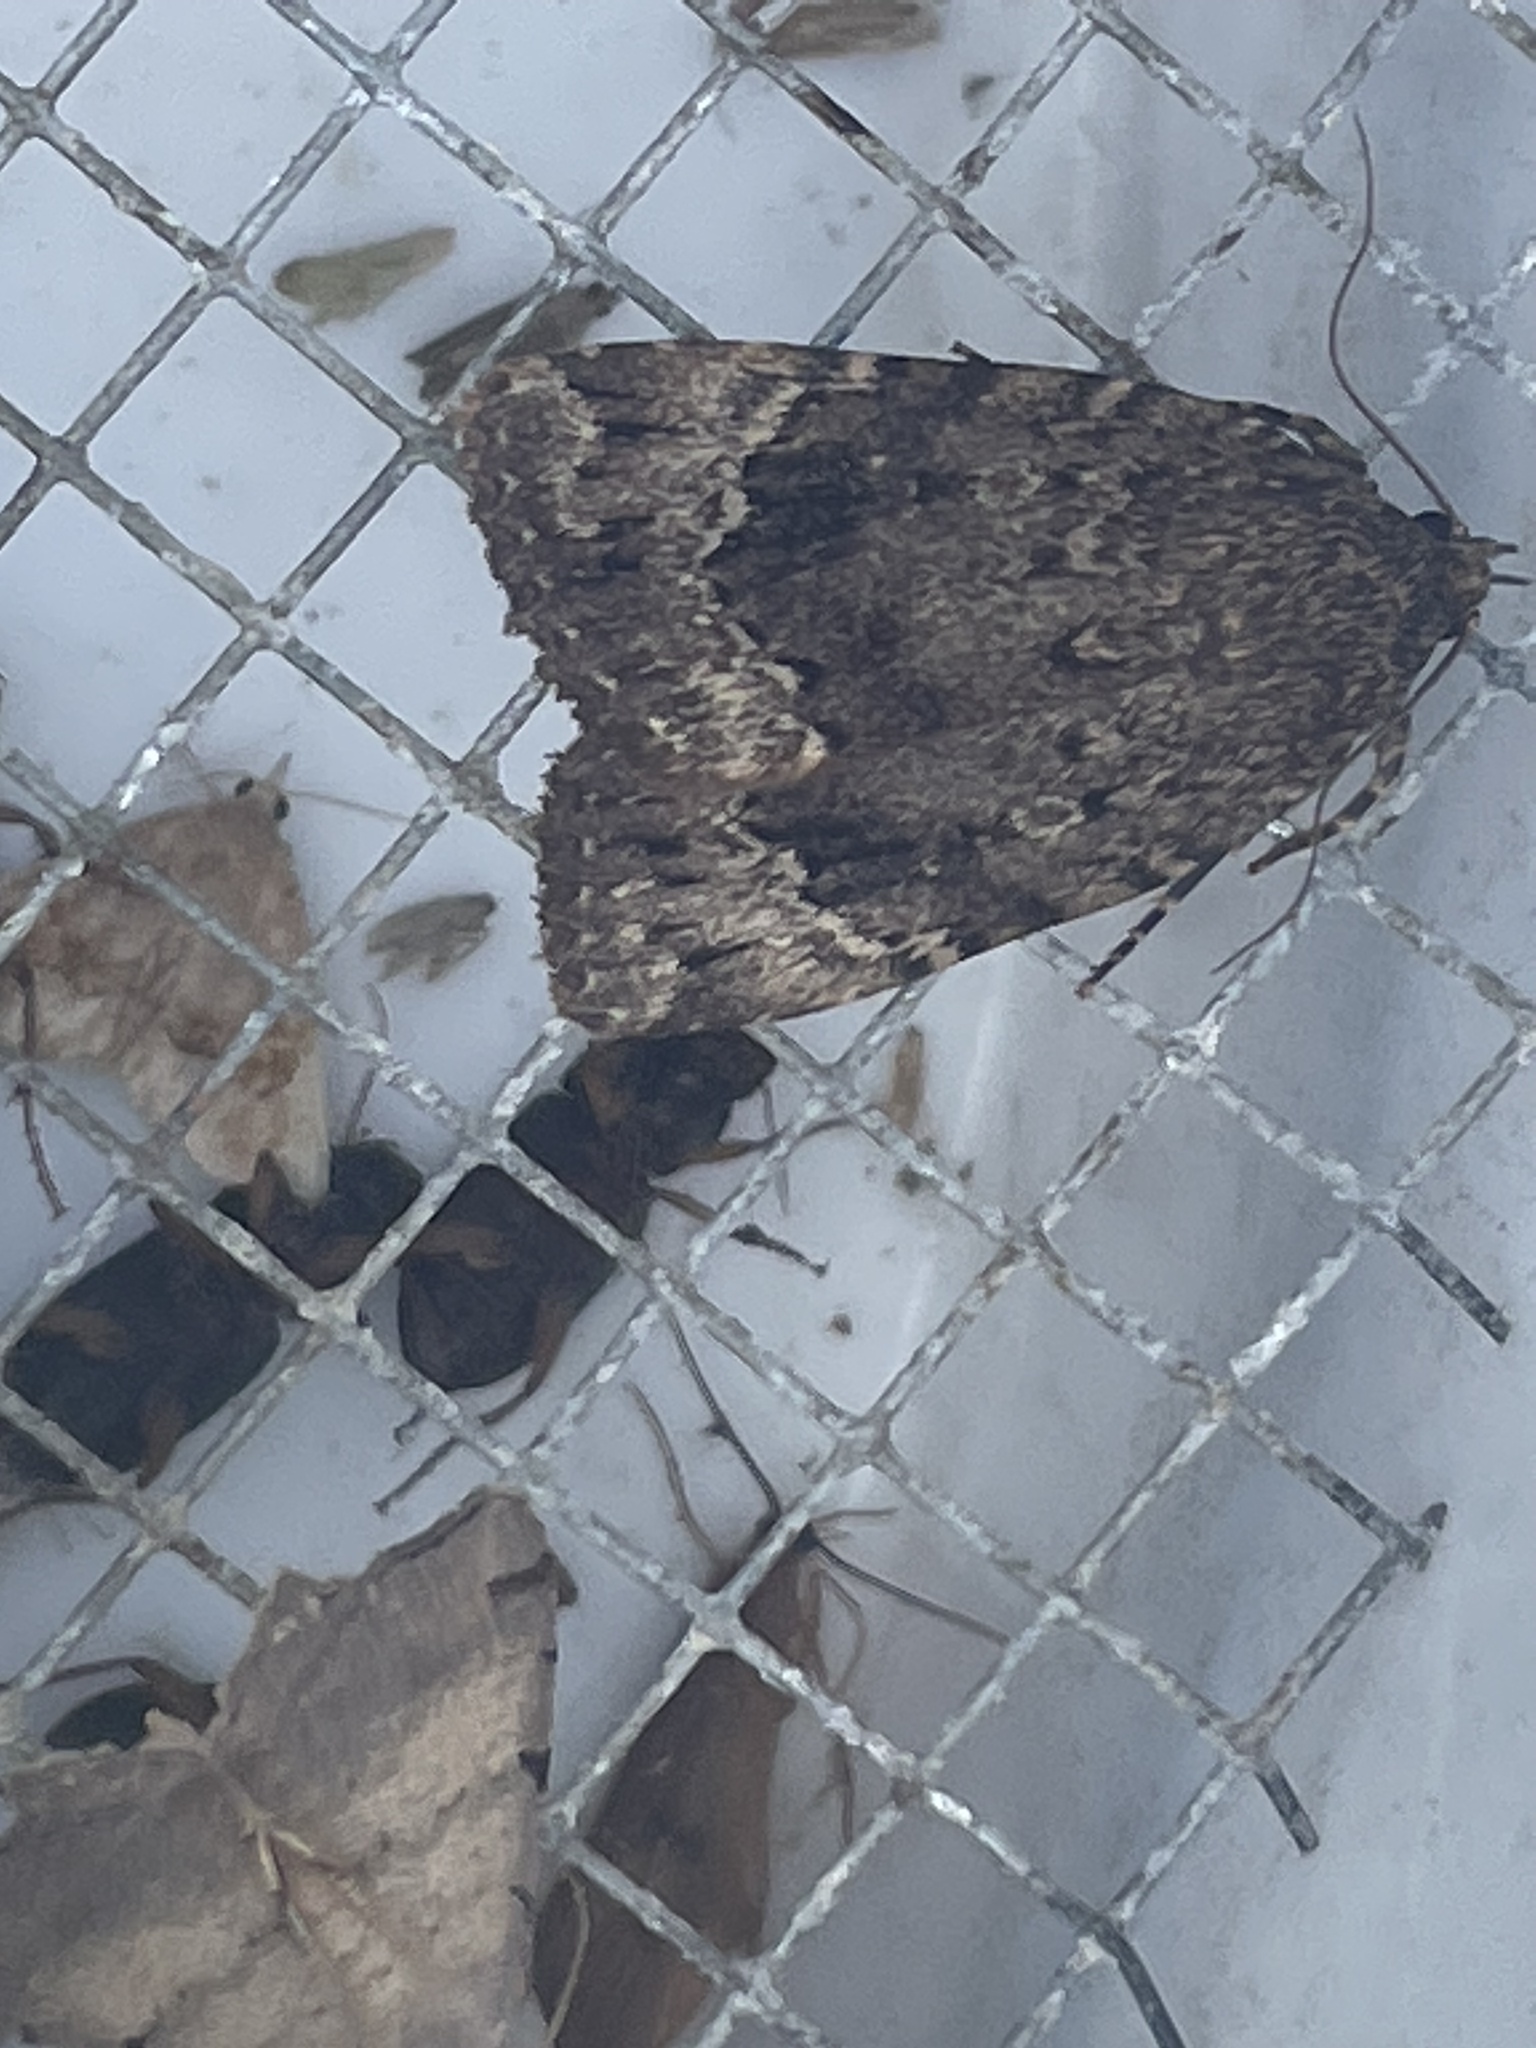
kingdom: Animalia
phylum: Arthropoda
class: Insecta
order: Lepidoptera
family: Noctuidae
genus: Amphipyra
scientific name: Amphipyra pyramidoides
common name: American copper underwing
